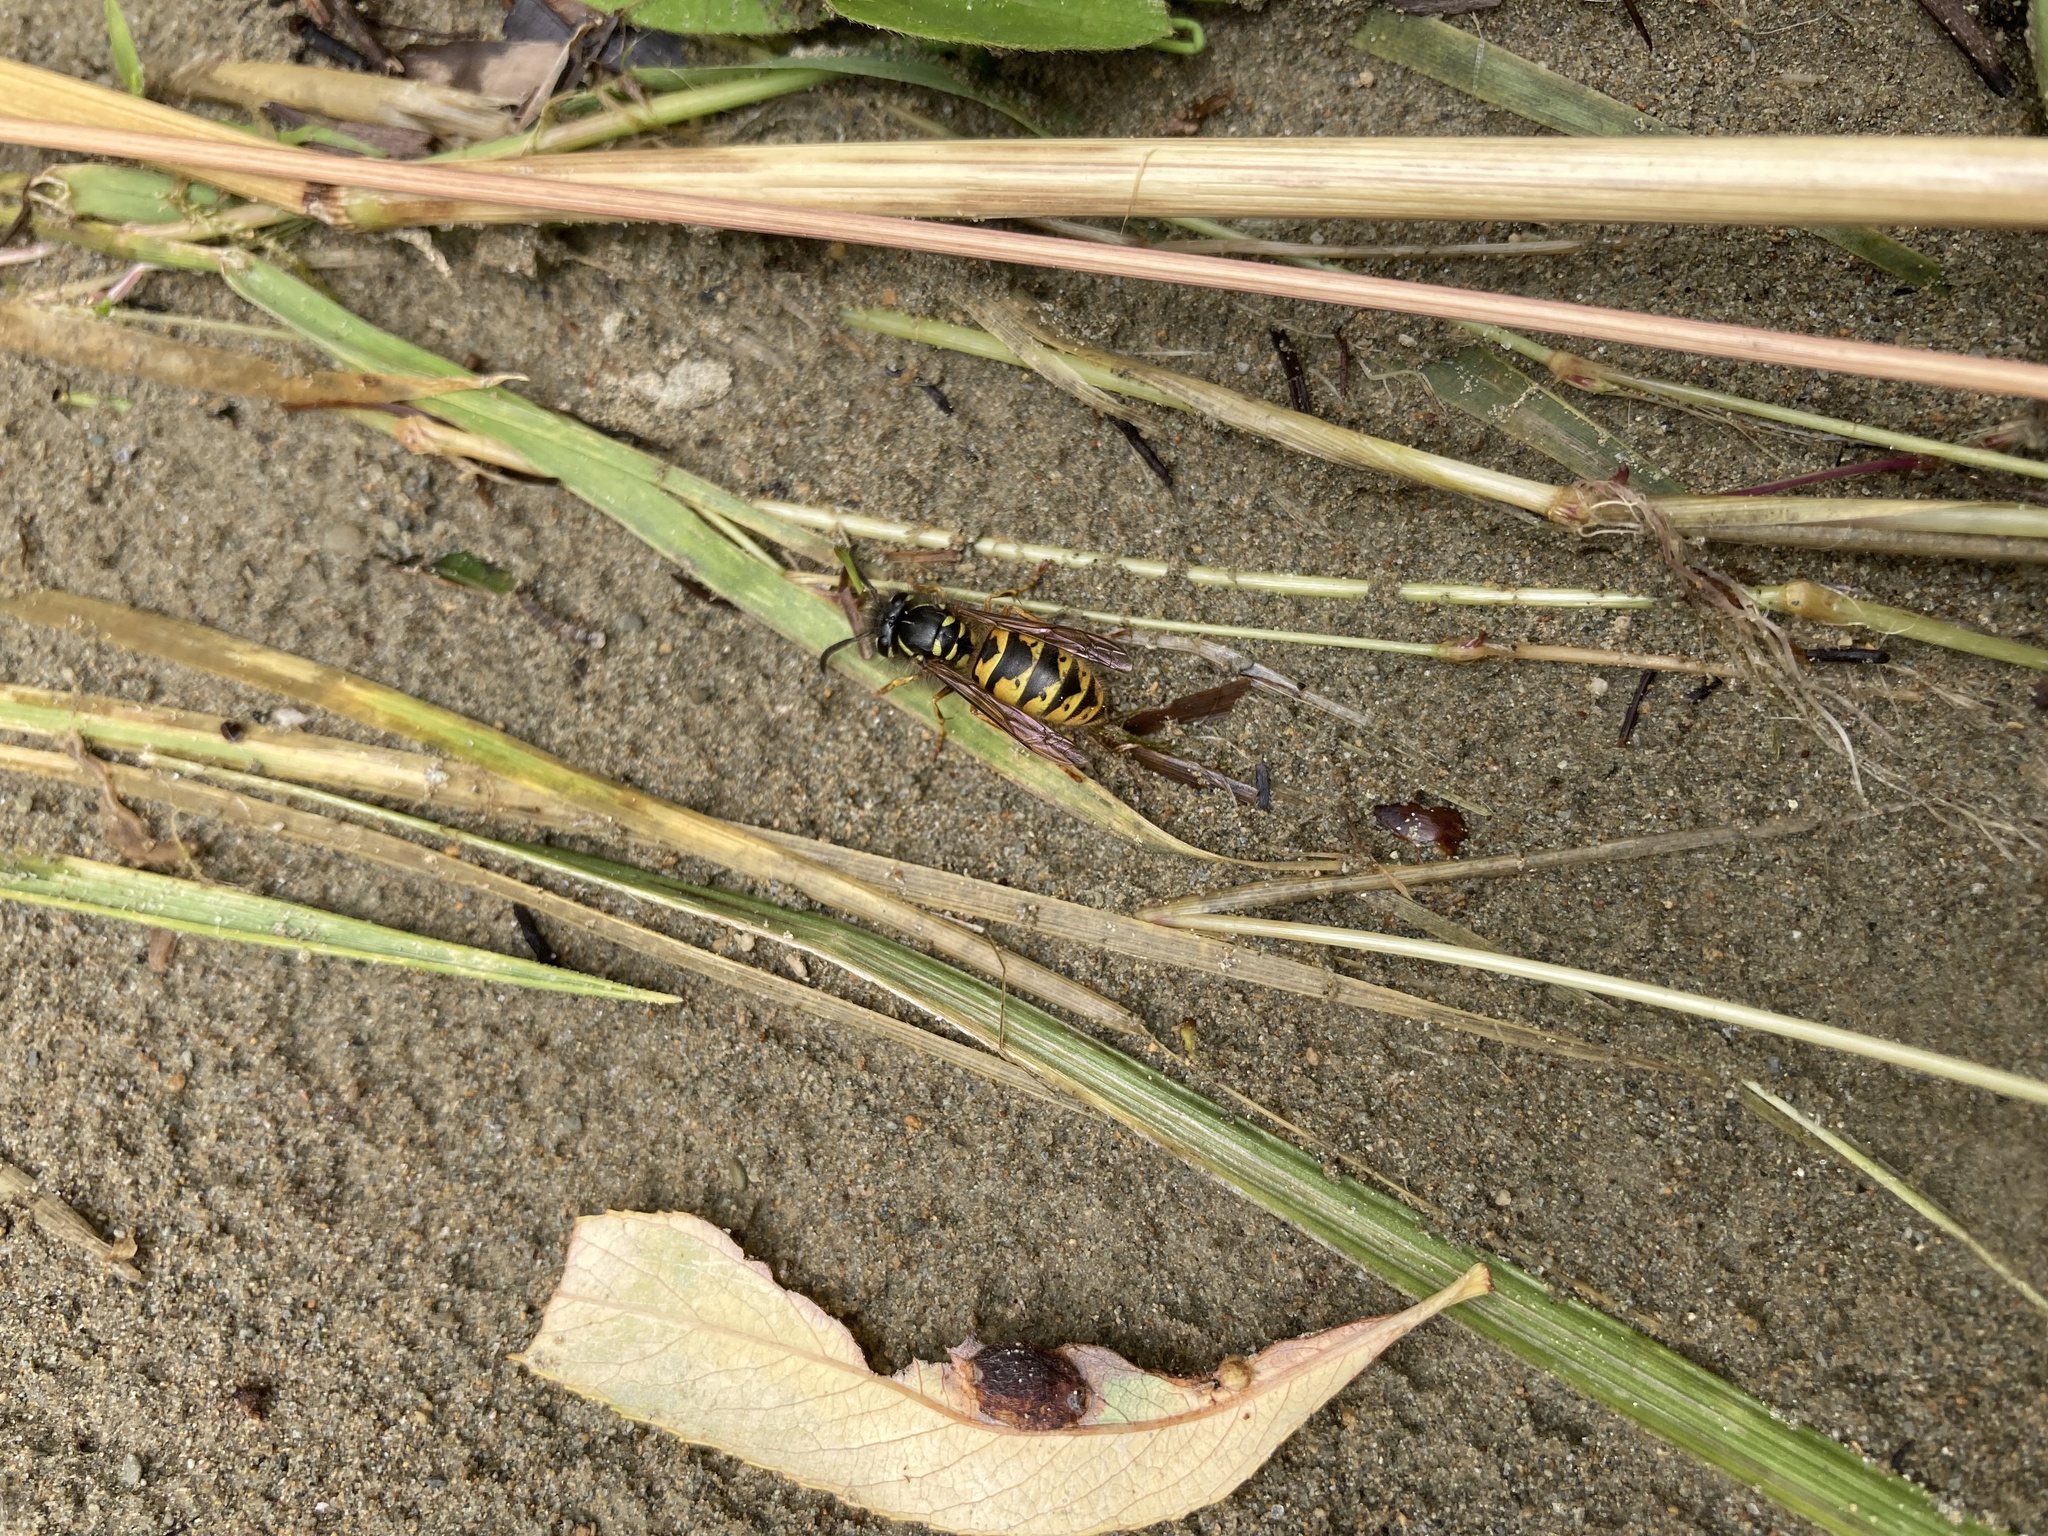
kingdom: Animalia
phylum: Arthropoda
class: Insecta
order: Hymenoptera
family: Vespidae
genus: Vespula
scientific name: Vespula vulgaris
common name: Common wasp
